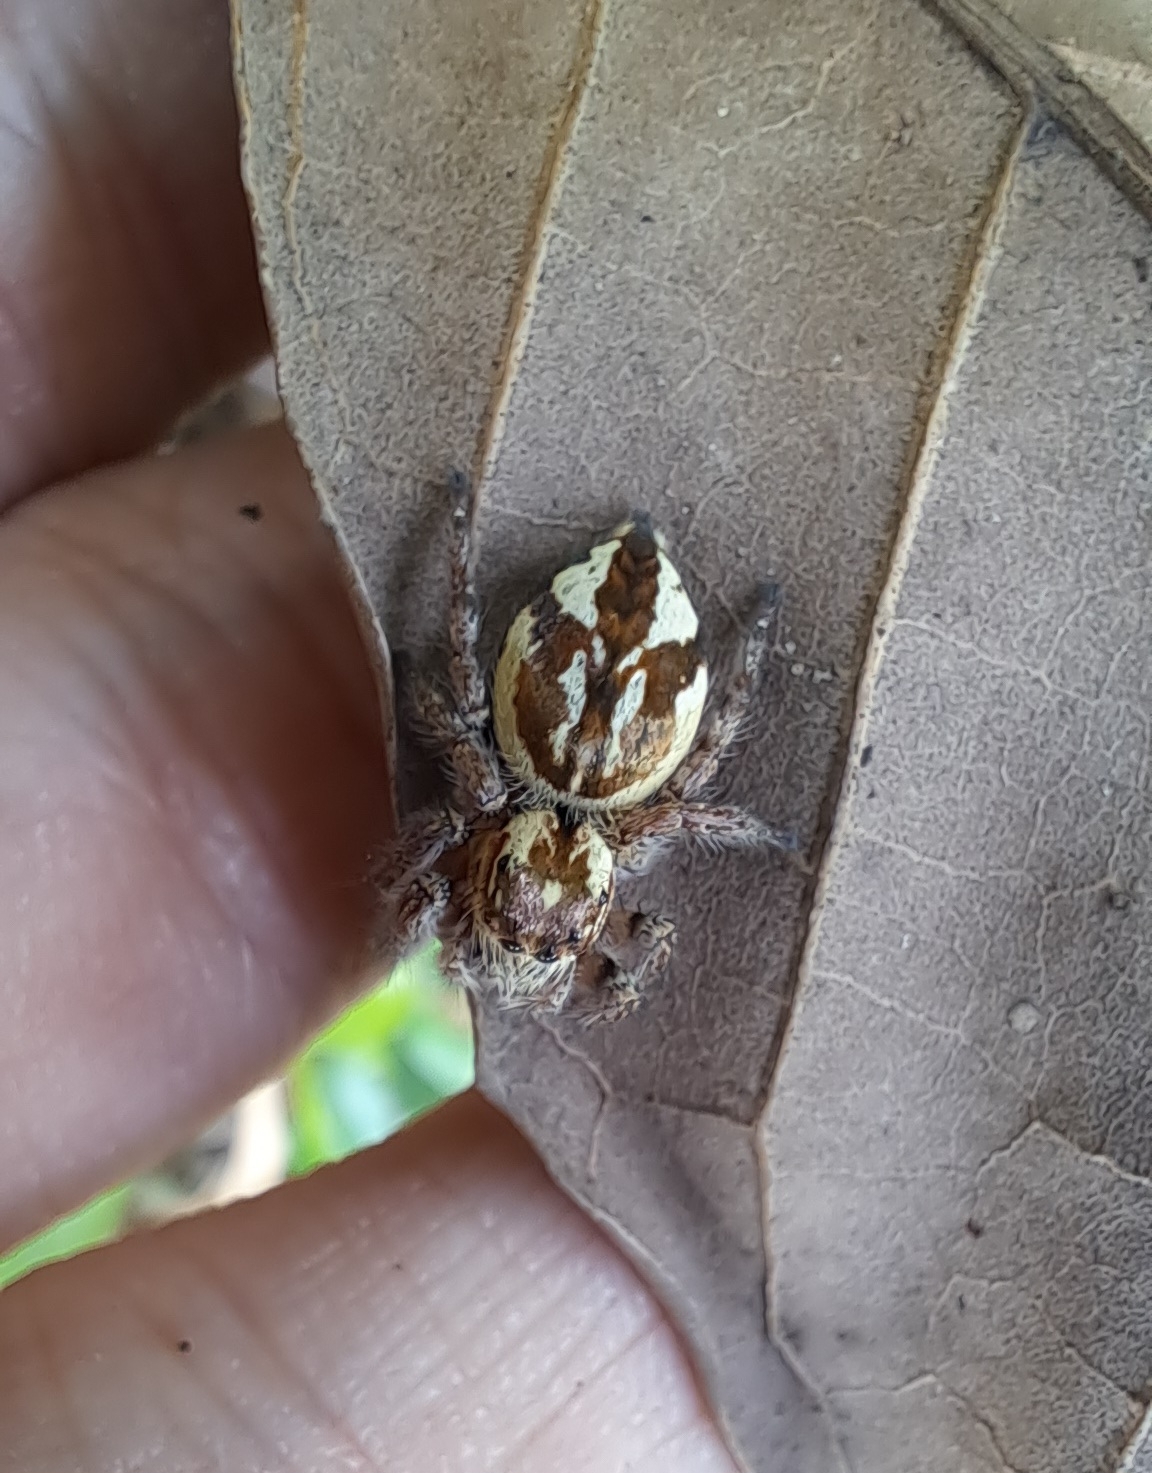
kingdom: Animalia
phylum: Arthropoda
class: Arachnida
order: Araneae
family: Salticidae
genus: Carrhotus
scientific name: Carrhotus viduus
